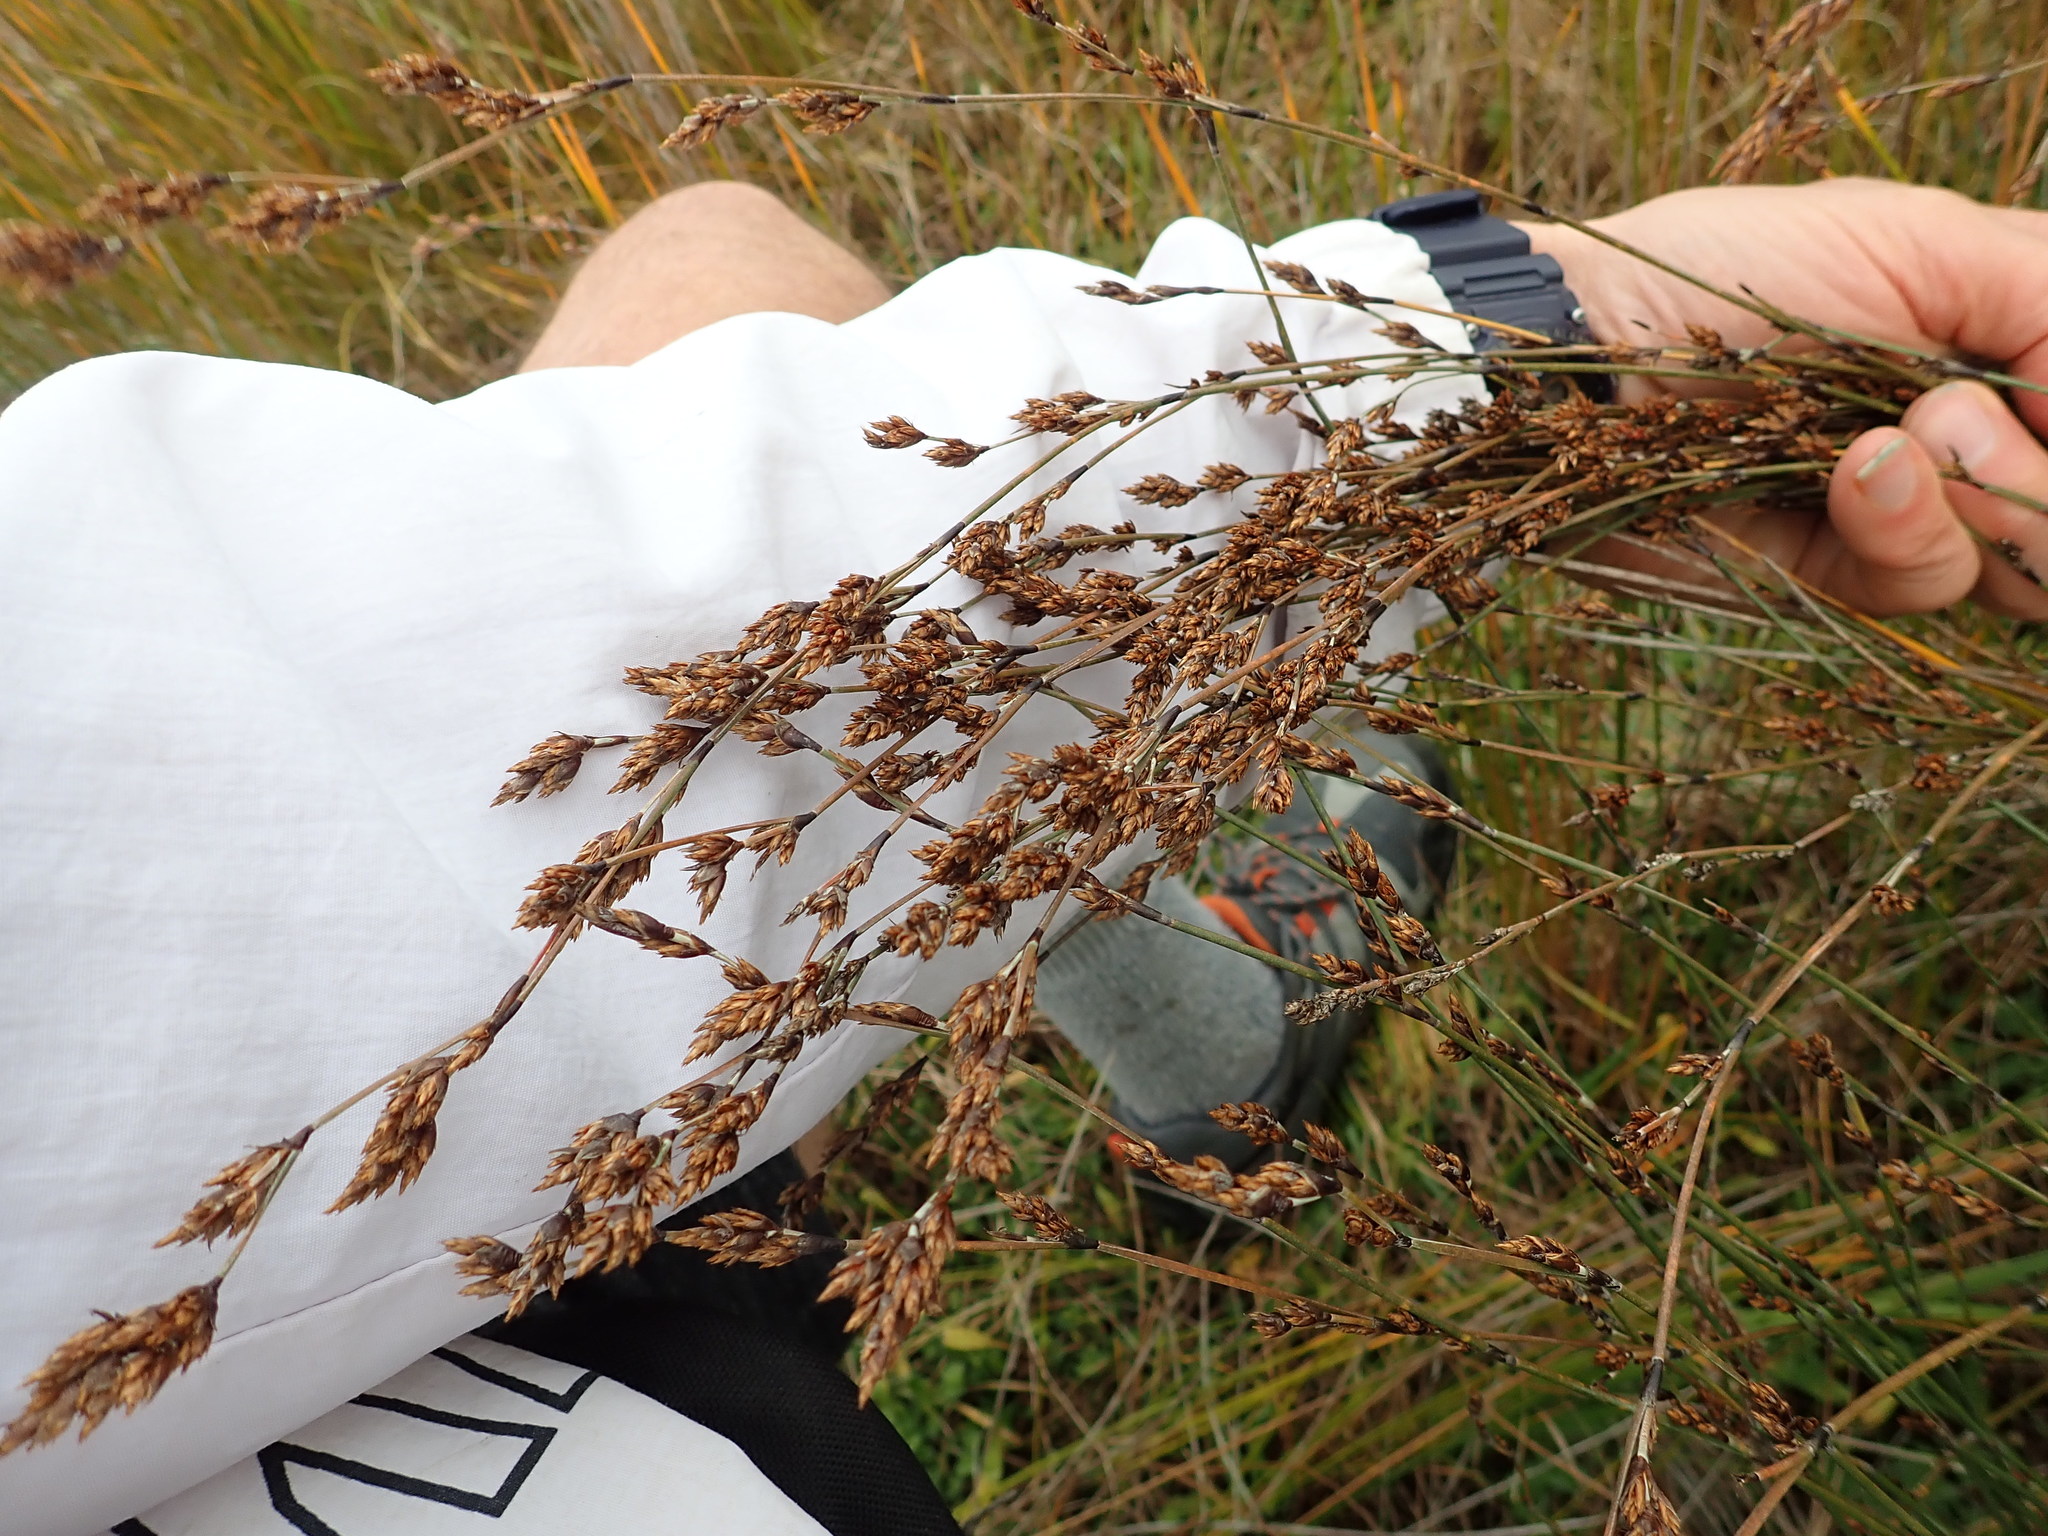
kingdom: Plantae
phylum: Tracheophyta
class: Liliopsida
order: Poales
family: Restionaceae
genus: Apodasmia
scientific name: Apodasmia similis
